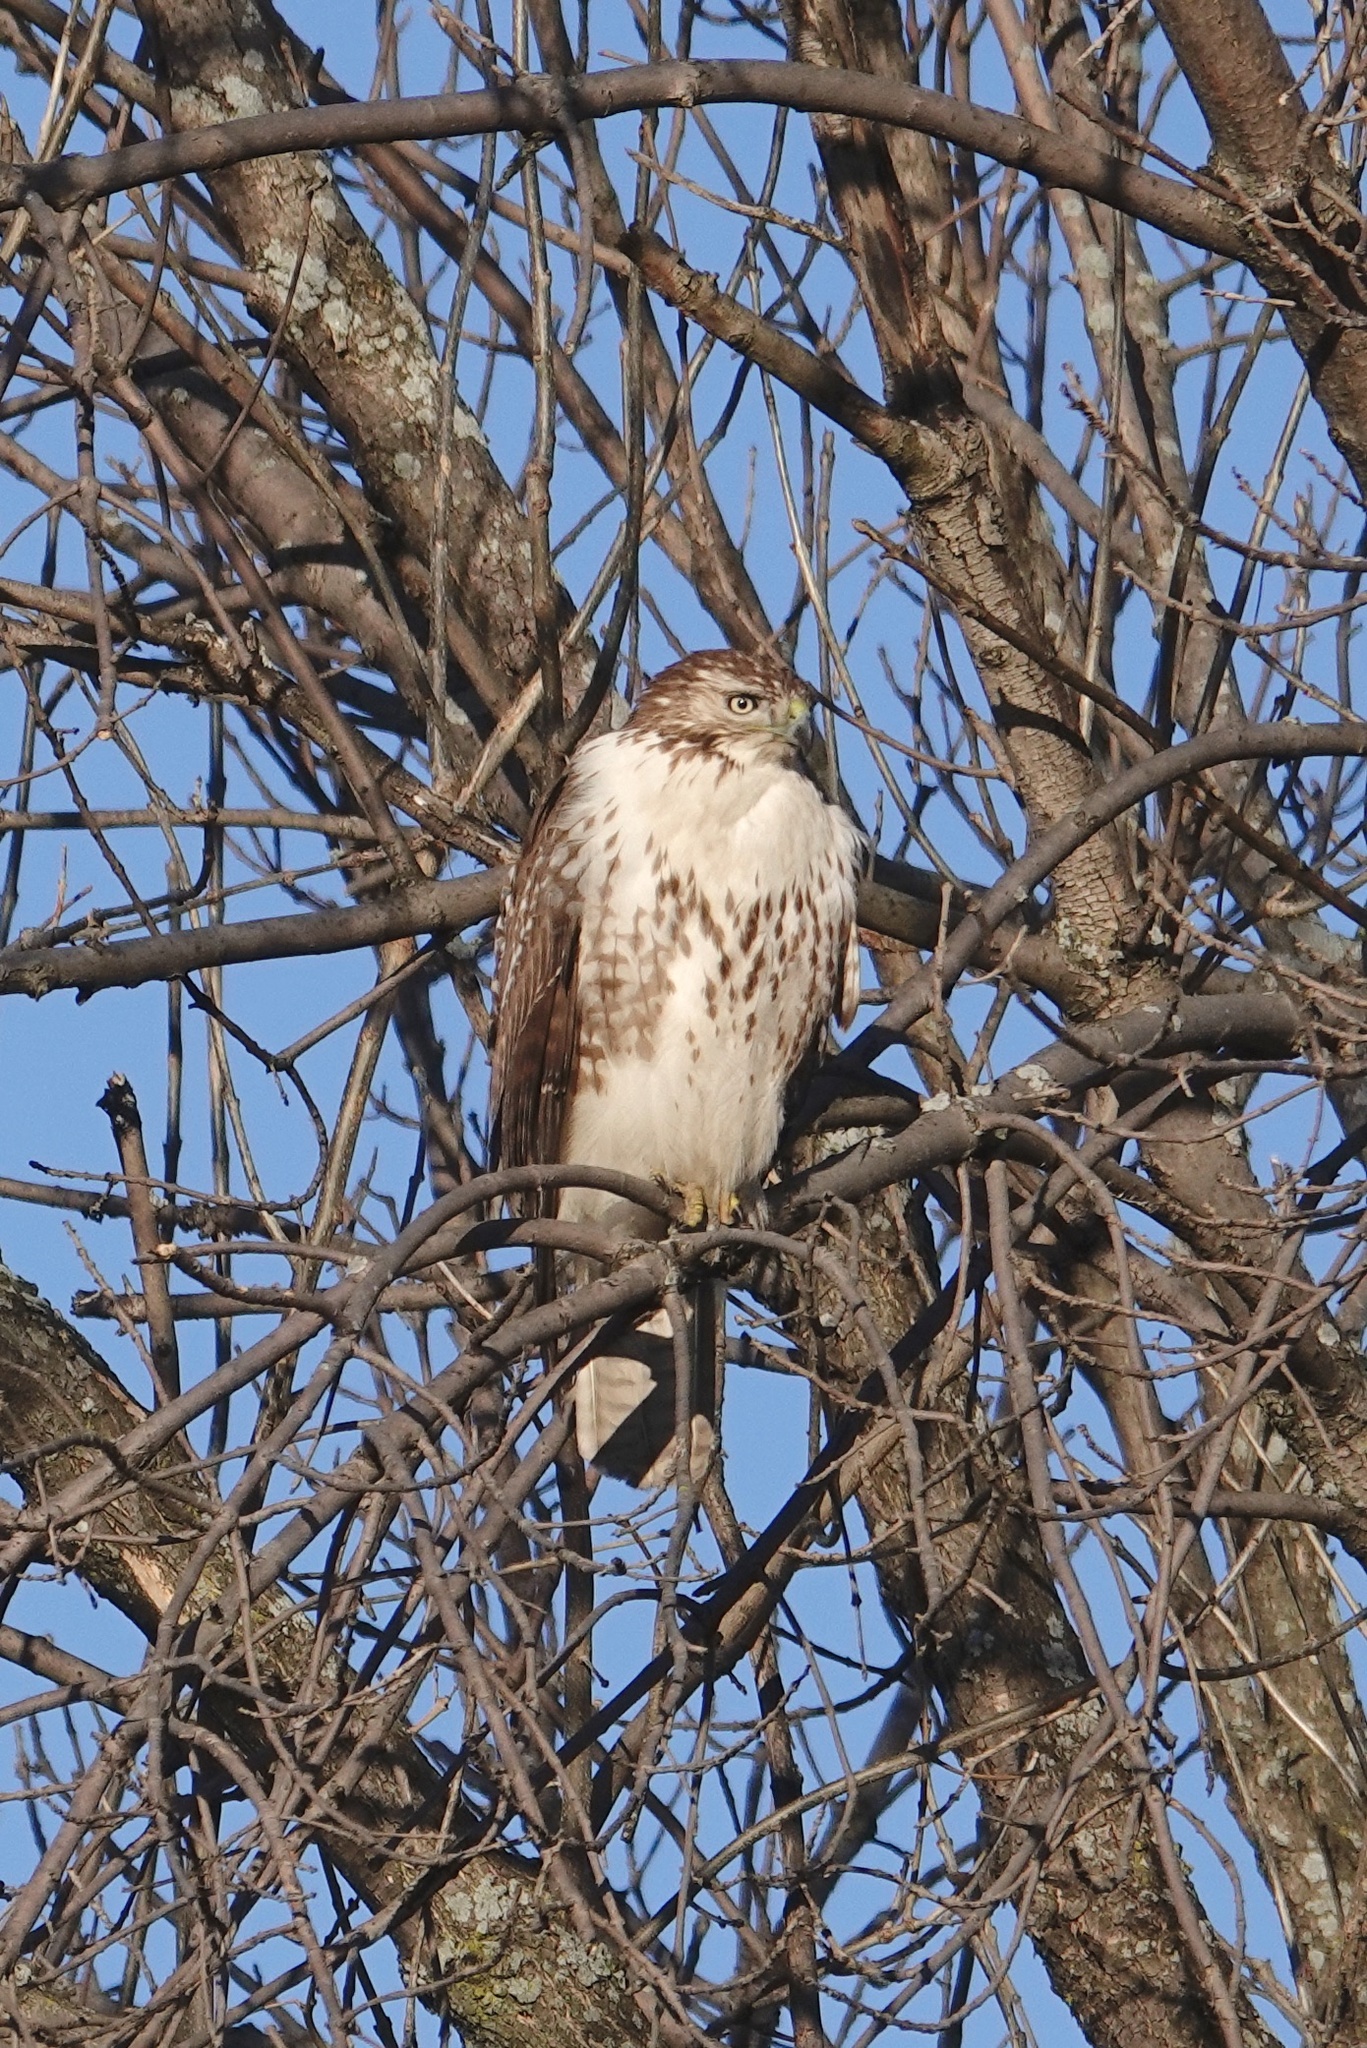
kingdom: Animalia
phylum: Chordata
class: Aves
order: Accipitriformes
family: Accipitridae
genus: Buteo
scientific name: Buteo jamaicensis
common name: Red-tailed hawk
